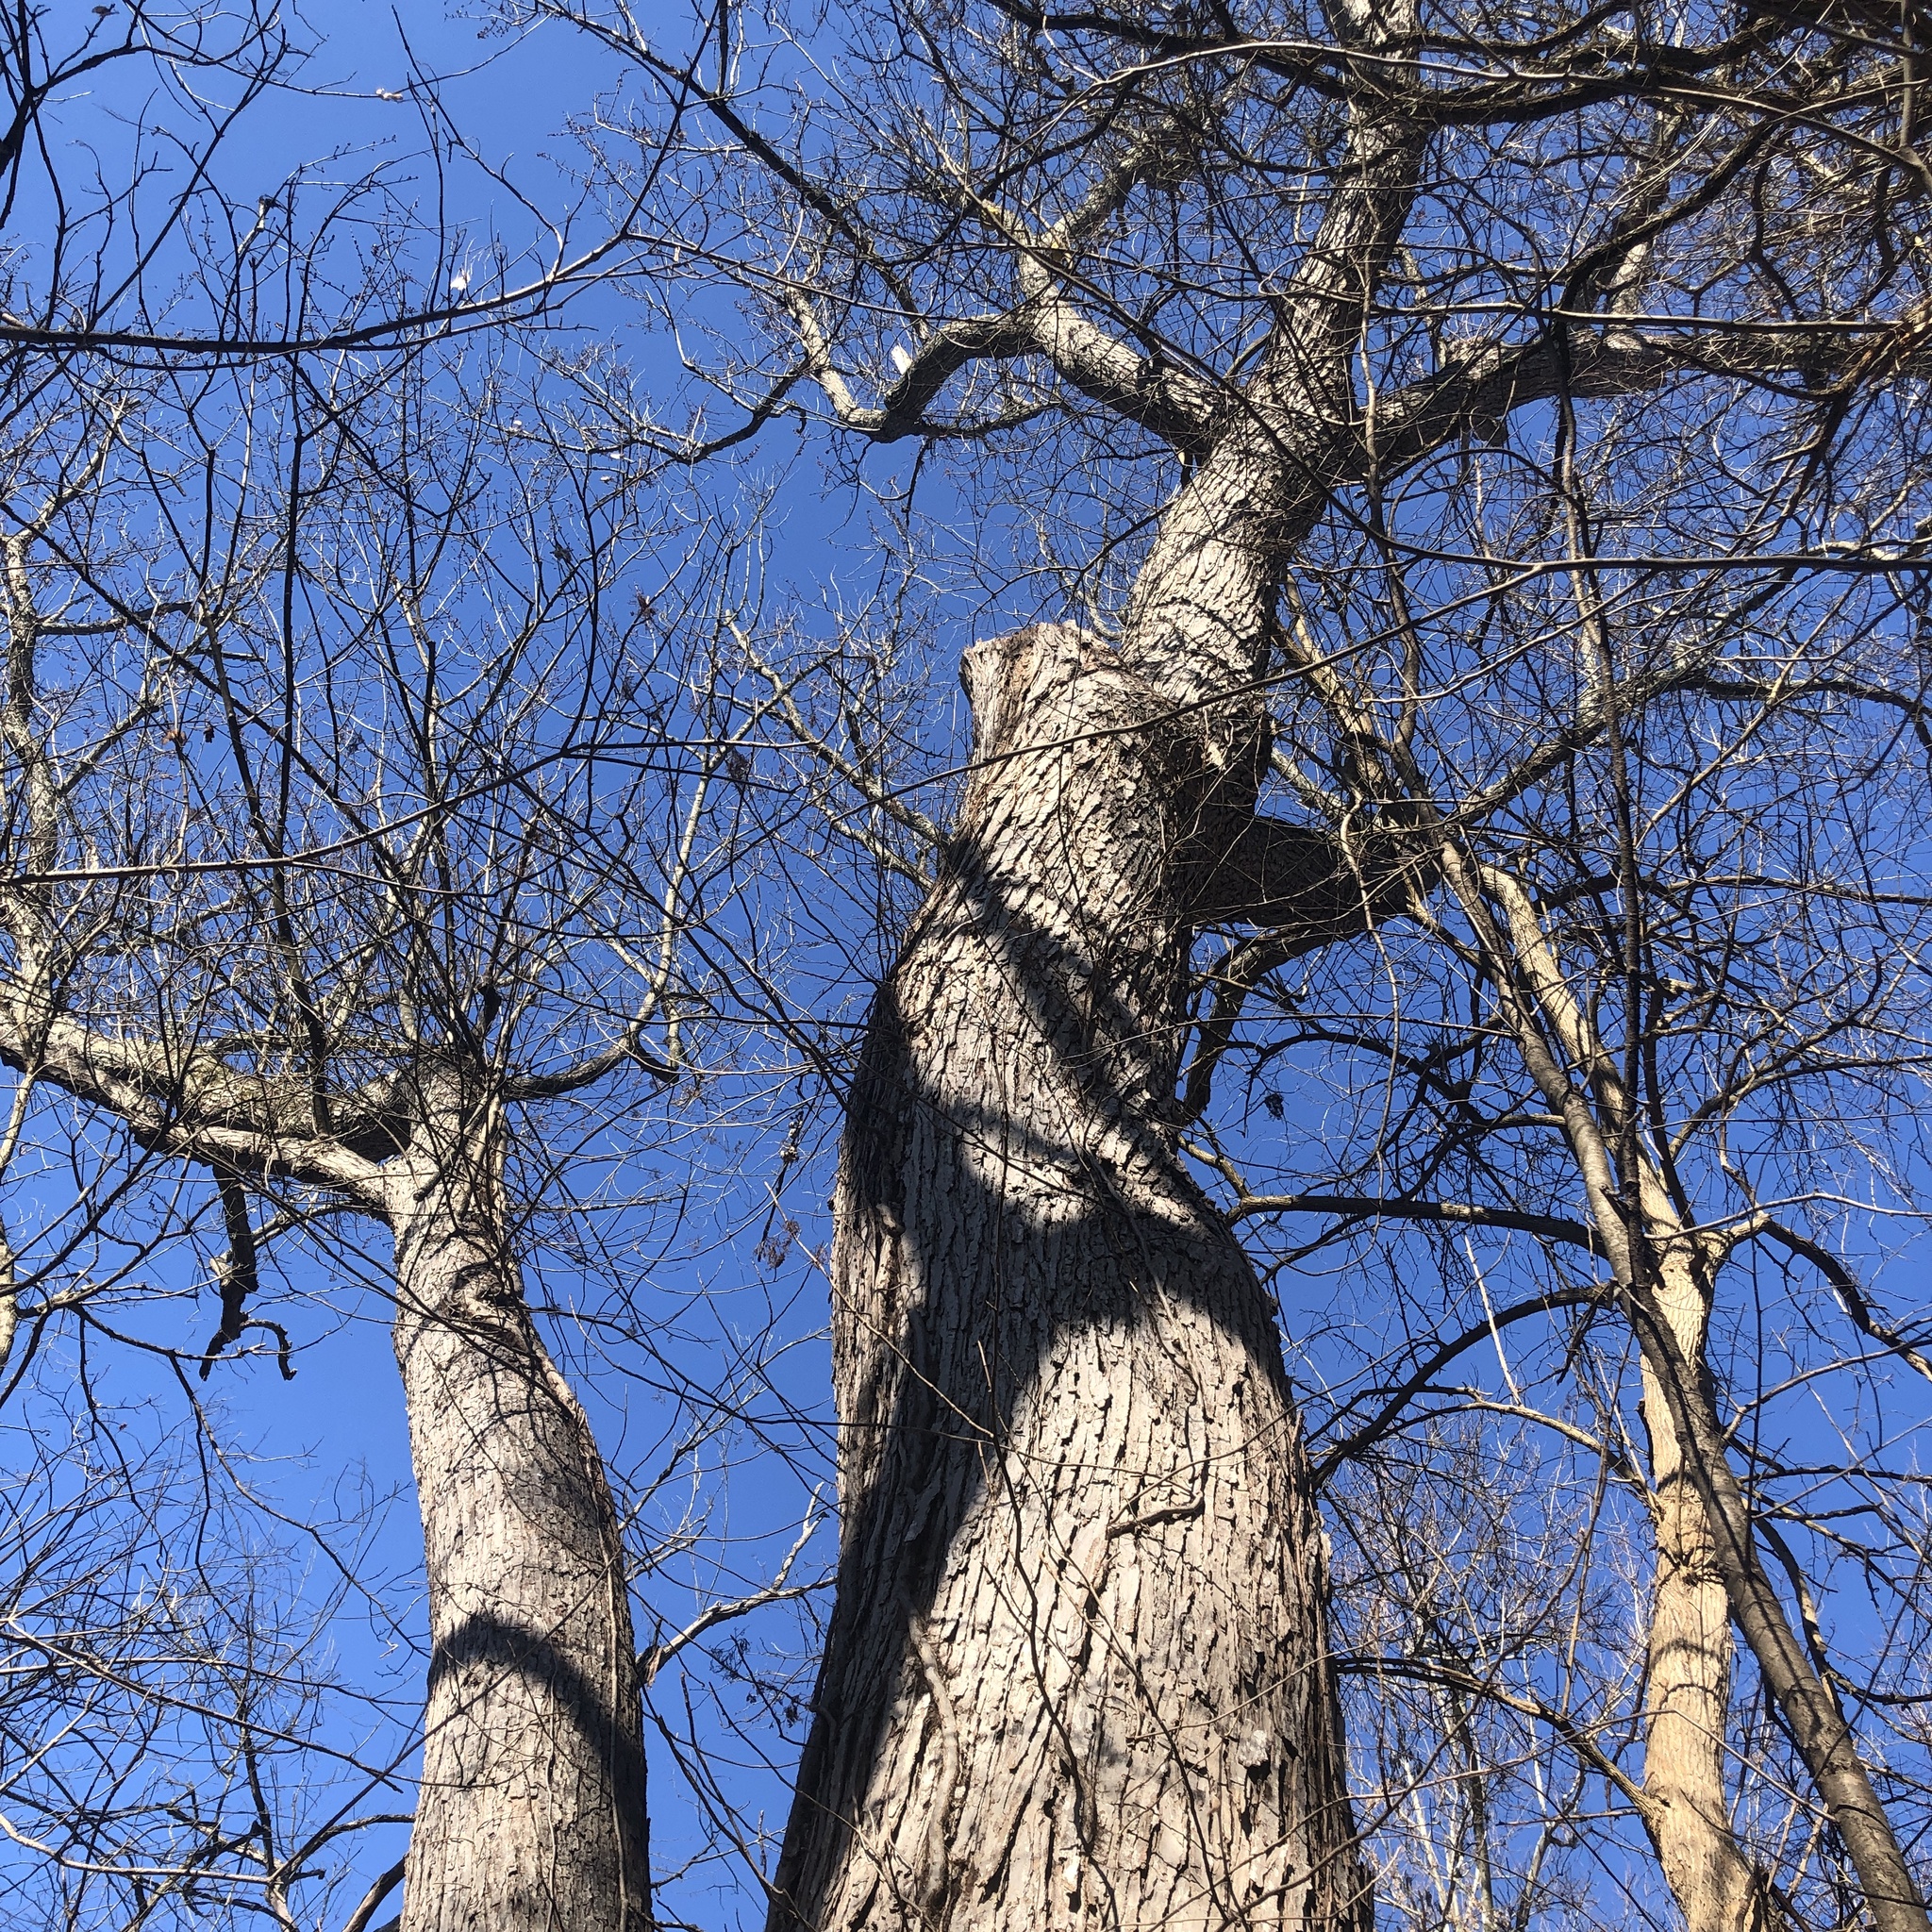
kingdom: Plantae
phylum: Tracheophyta
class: Magnoliopsida
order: Sapindales
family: Sapindaceae
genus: Acer
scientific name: Acer saccharinum
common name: Silver maple
